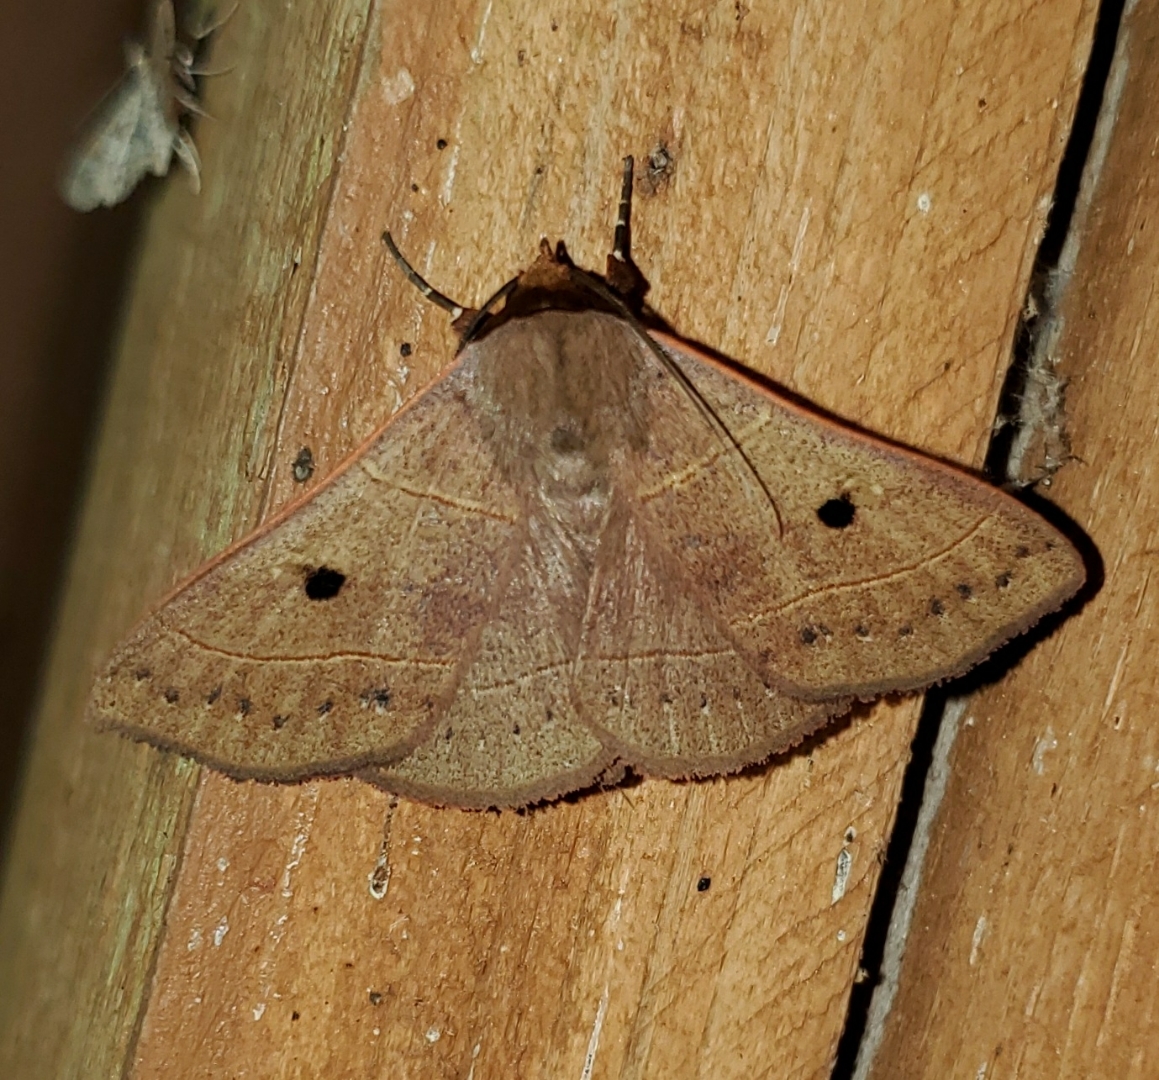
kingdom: Animalia
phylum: Arthropoda
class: Insecta
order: Lepidoptera
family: Erebidae
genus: Panopoda
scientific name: Panopoda rufimargo
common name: Red-lined panopoda moth
